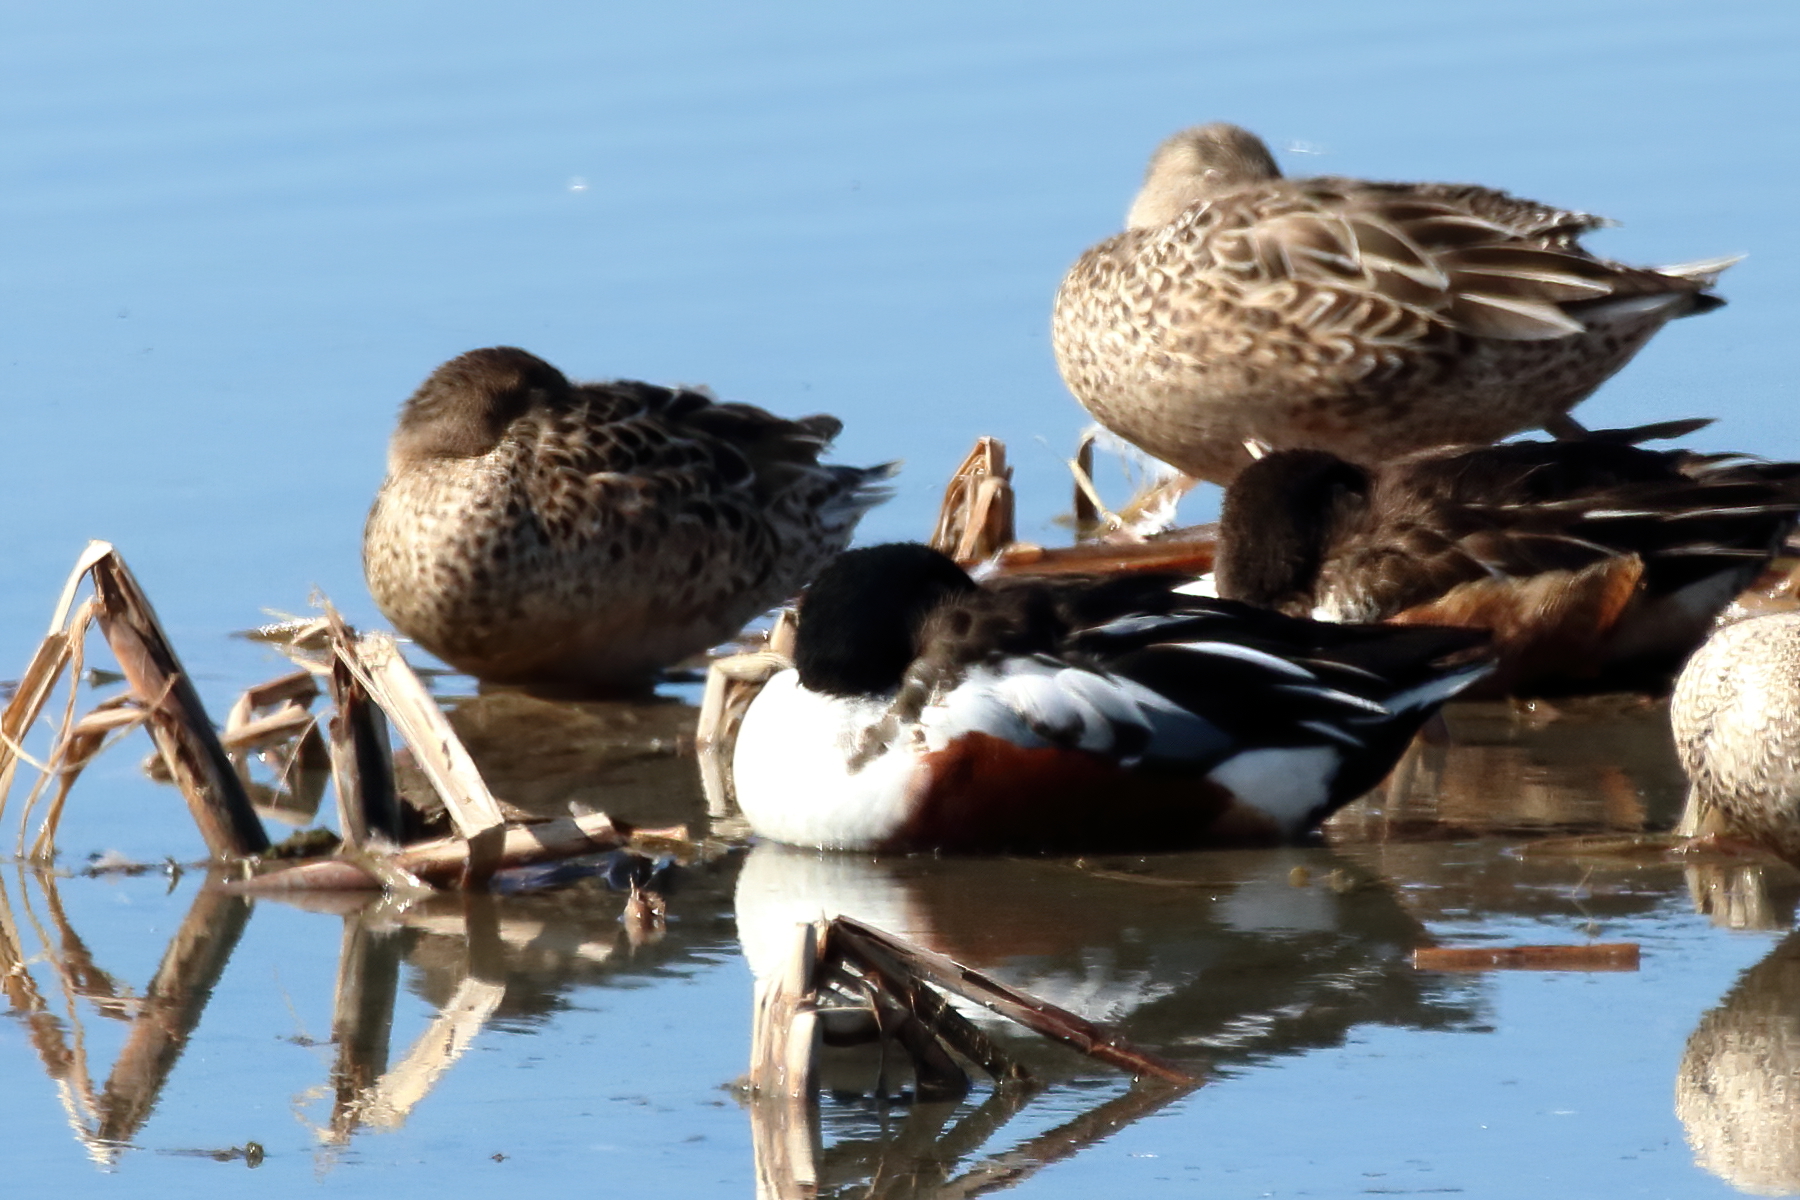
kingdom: Animalia
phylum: Chordata
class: Aves
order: Anseriformes
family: Anatidae
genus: Spatula
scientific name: Spatula clypeata
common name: Northern shoveler
